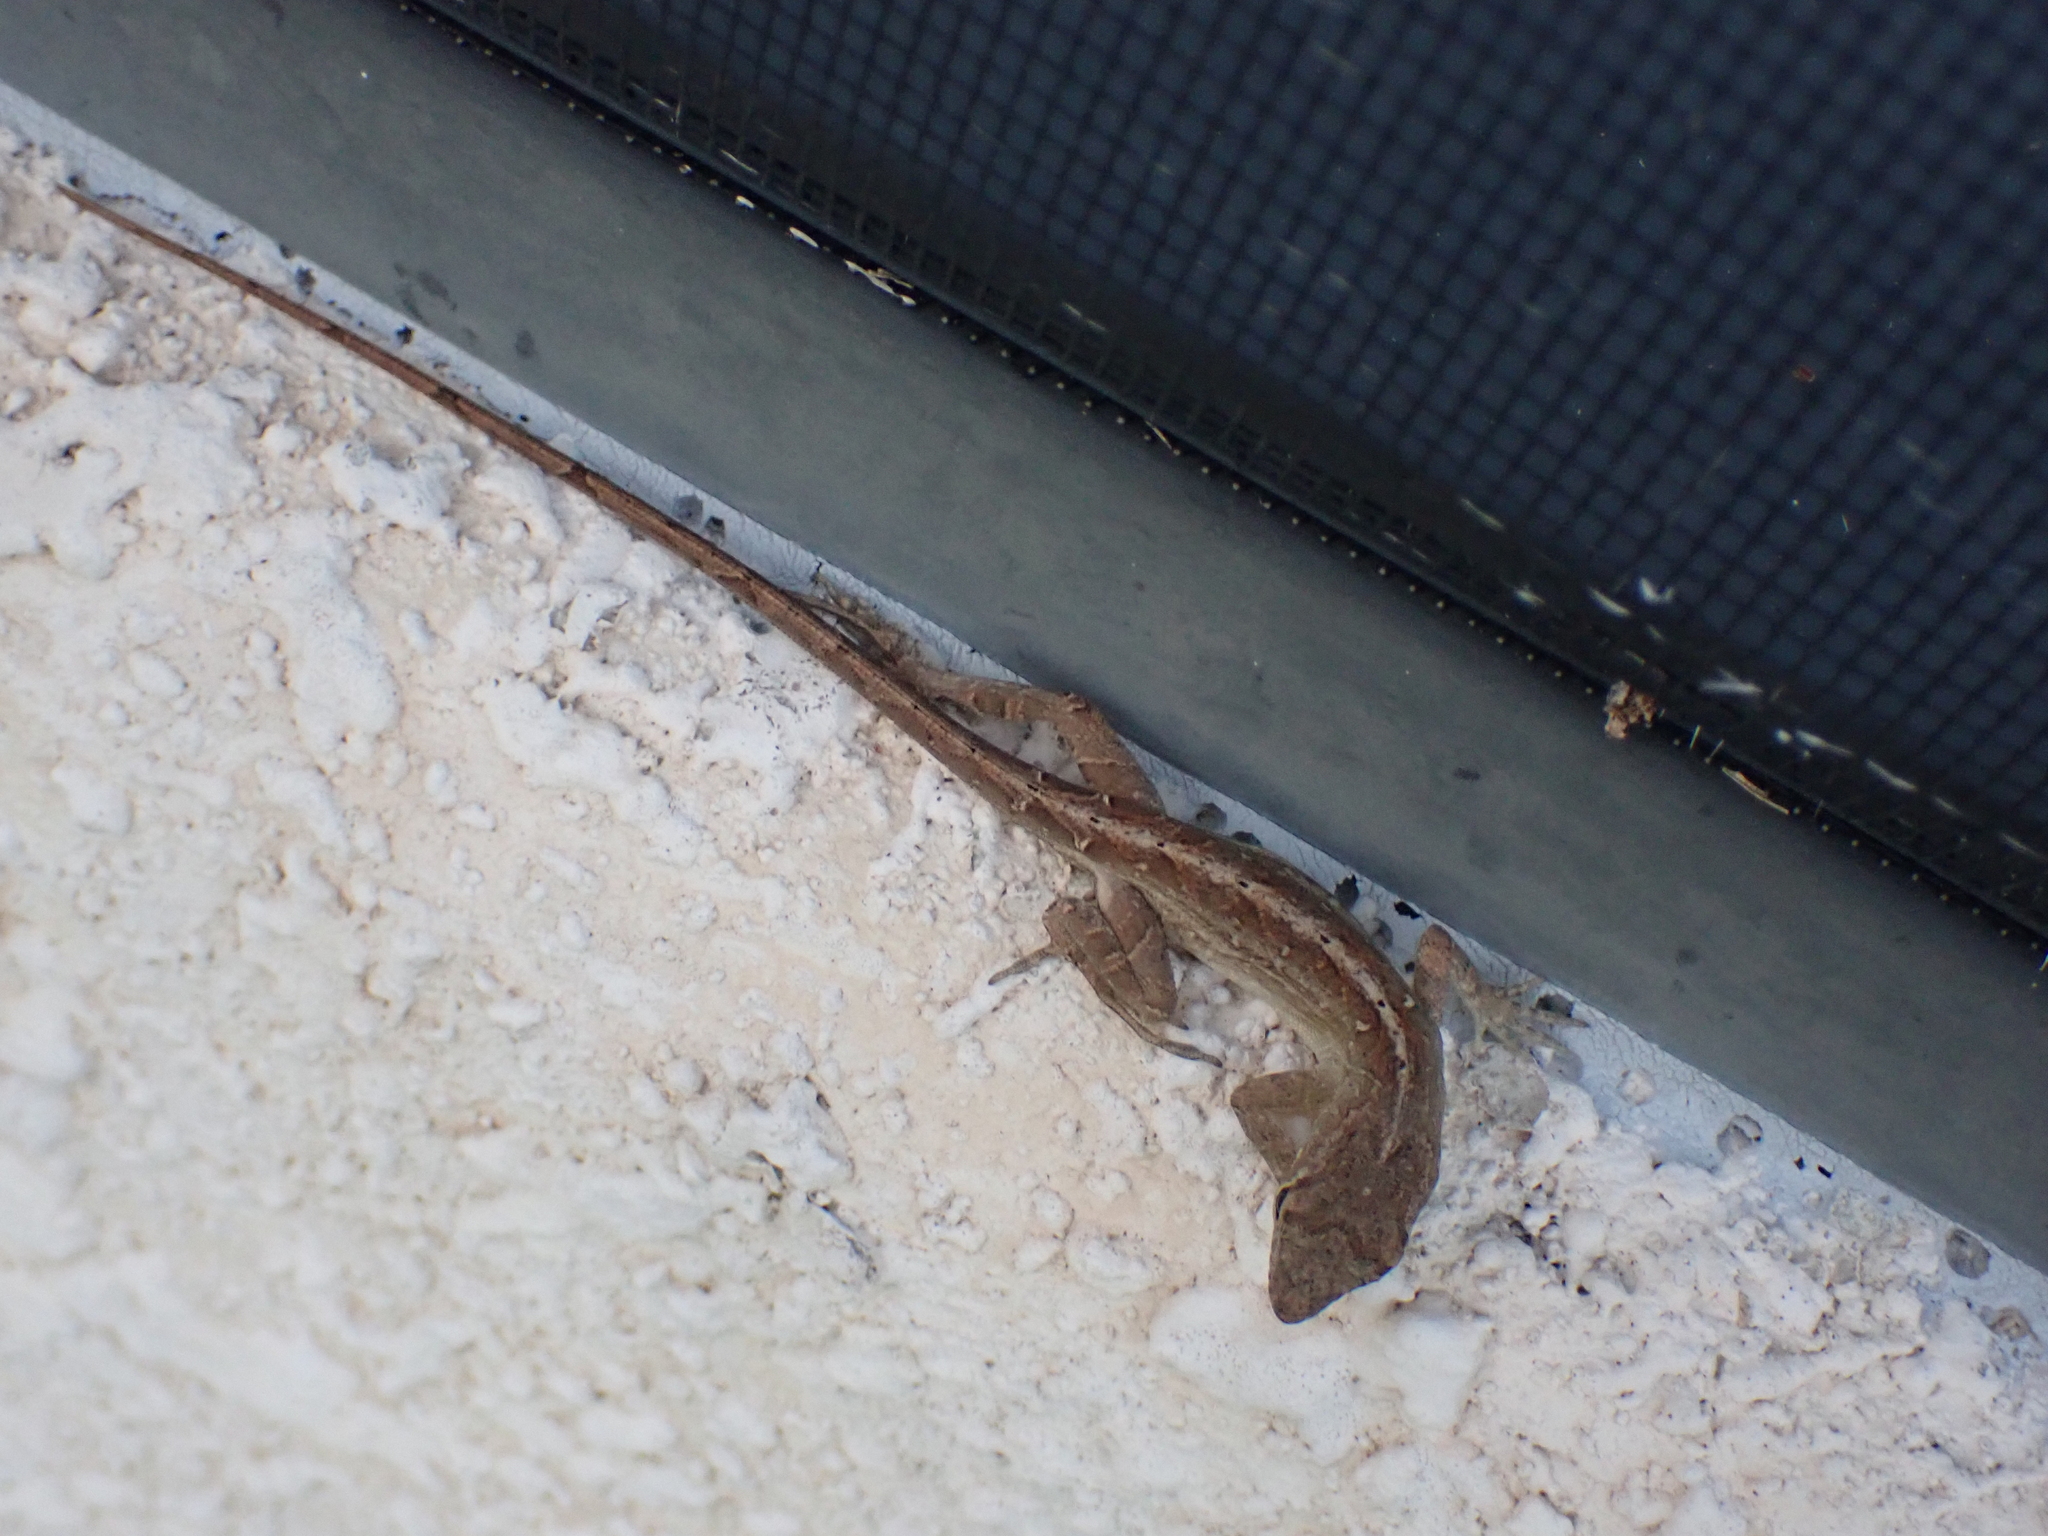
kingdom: Animalia
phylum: Chordata
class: Squamata
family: Dactyloidae
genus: Anolis
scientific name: Anolis sagrei
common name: Brown anole
